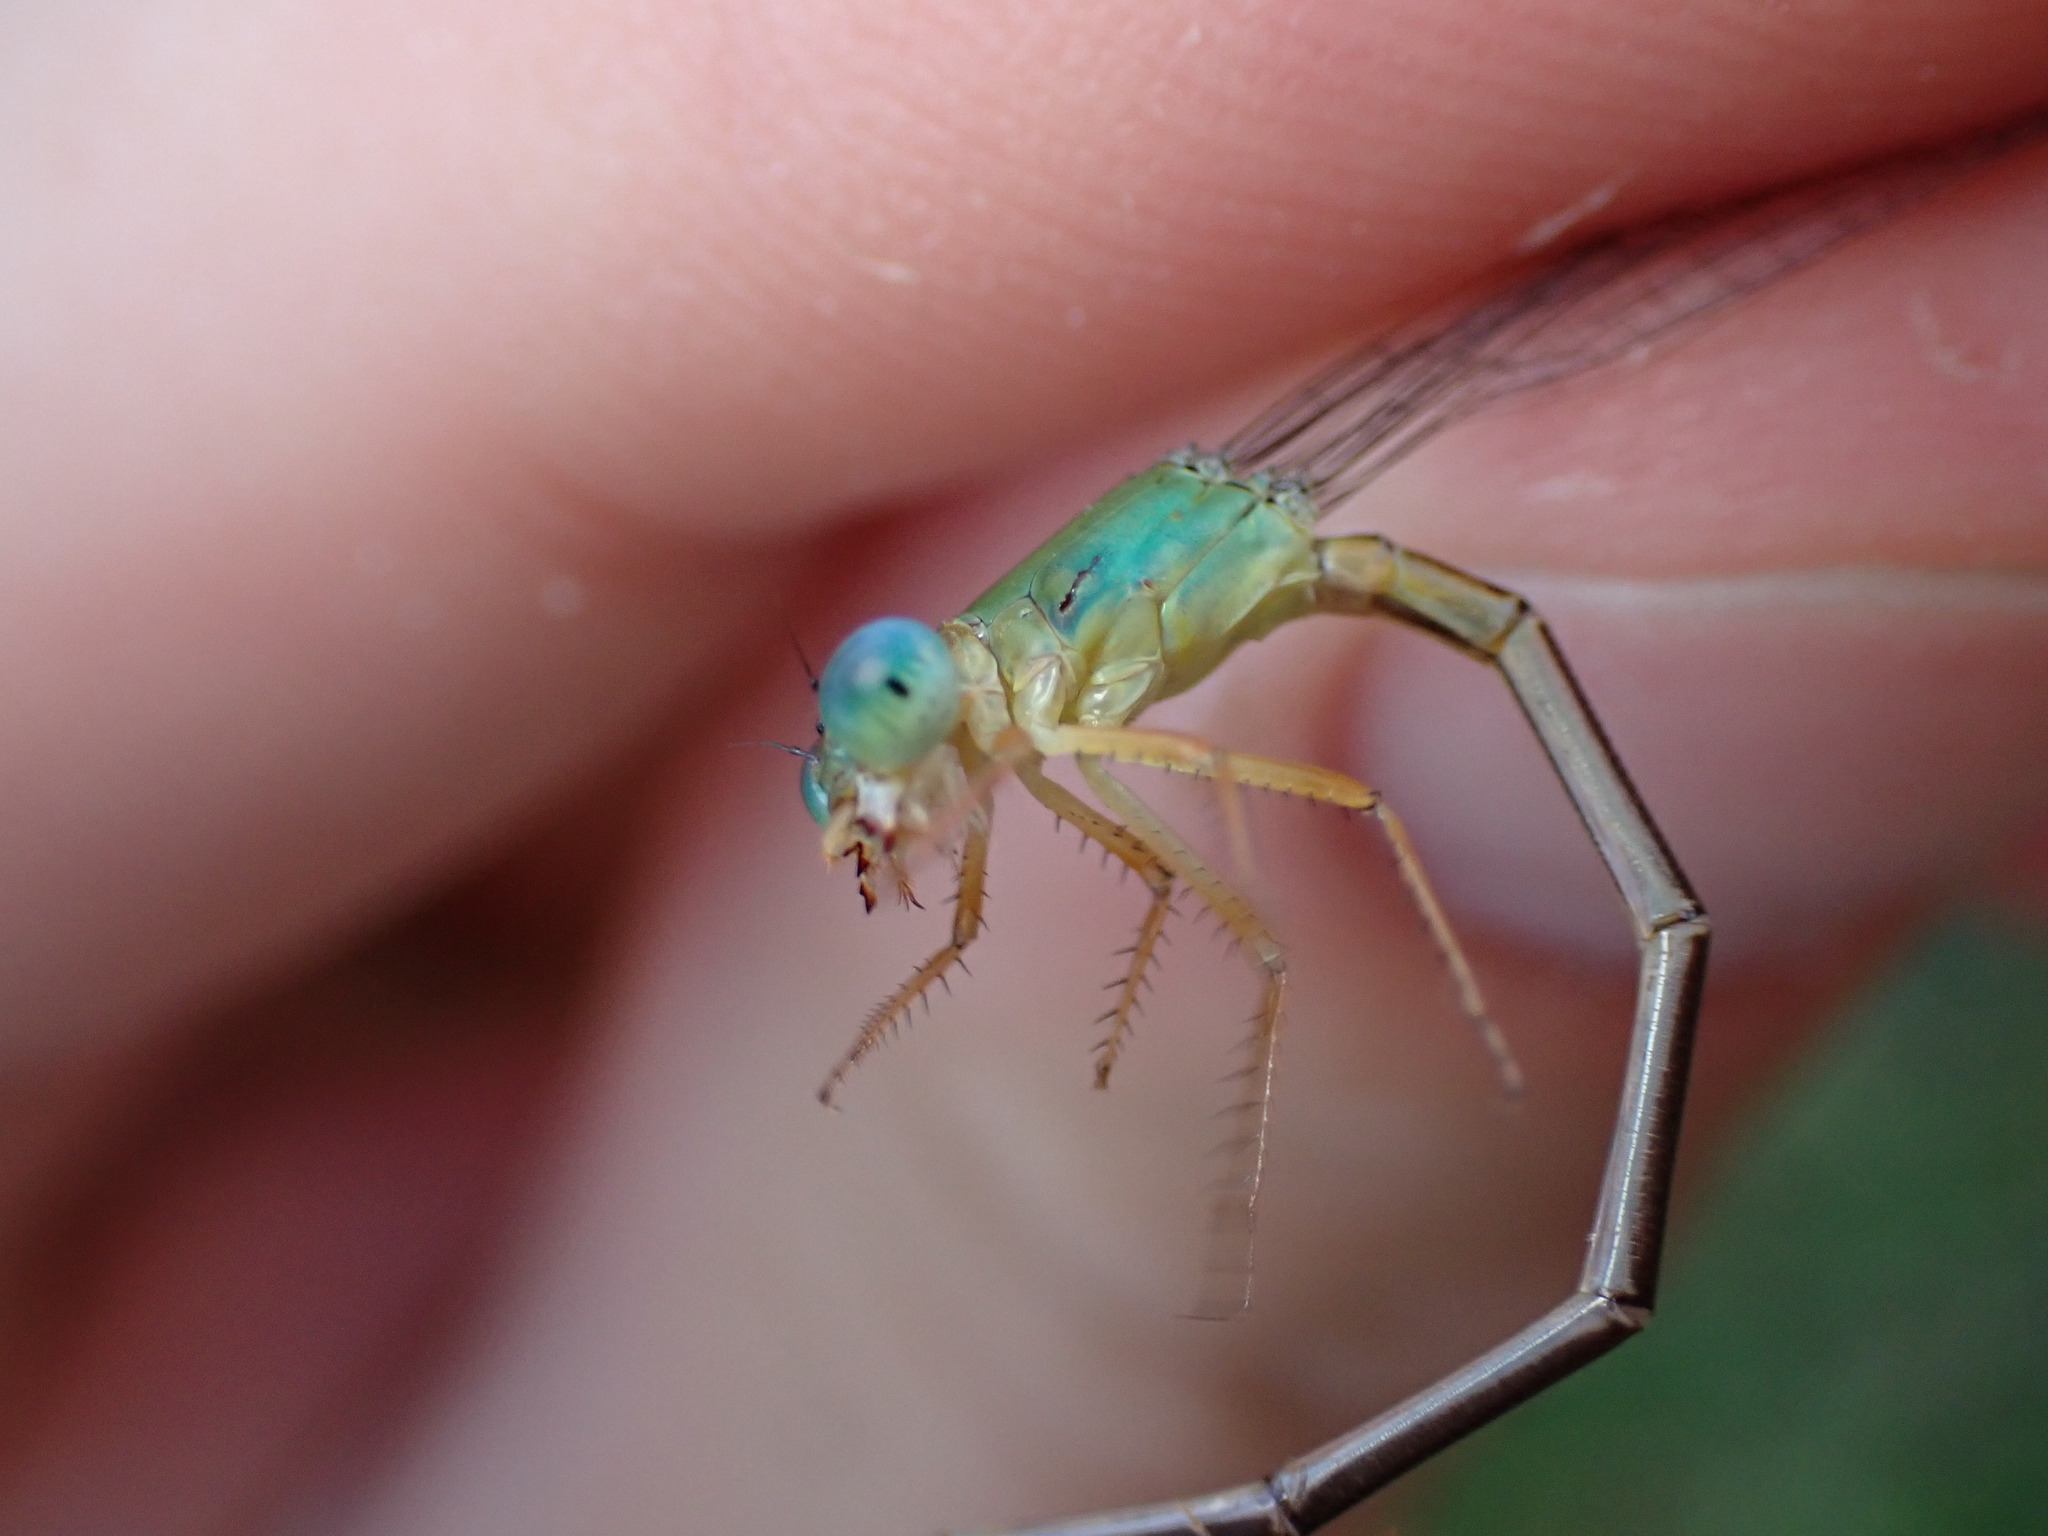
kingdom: Animalia
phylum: Arthropoda
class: Insecta
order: Odonata
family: Coenagrionidae
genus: Ceriagrion
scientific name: Ceriagrion cerinorubellum
